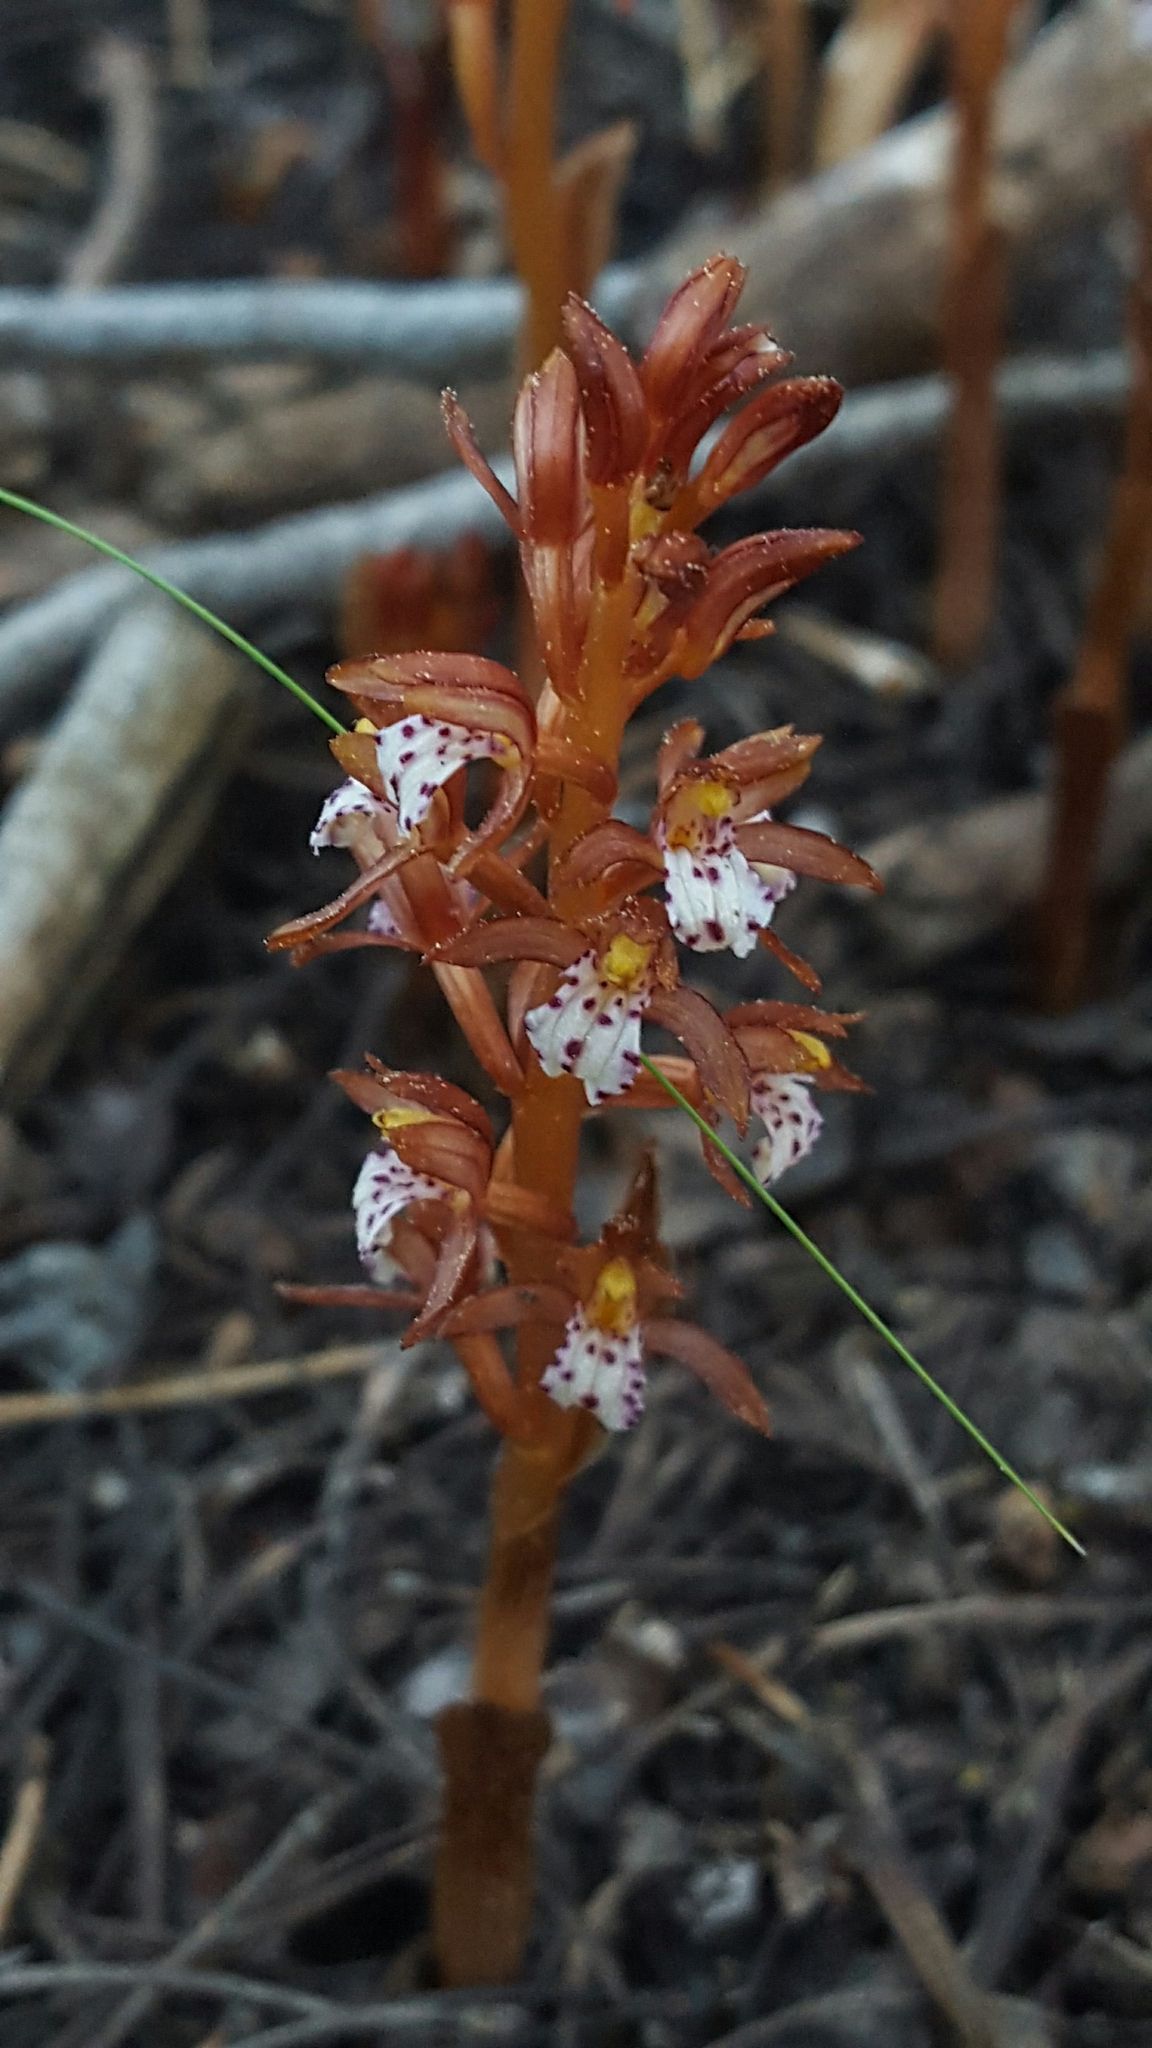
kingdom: Plantae
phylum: Tracheophyta
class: Liliopsida
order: Asparagales
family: Orchidaceae
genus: Corallorhiza
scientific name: Corallorhiza maculata
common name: Spotted coralroot
